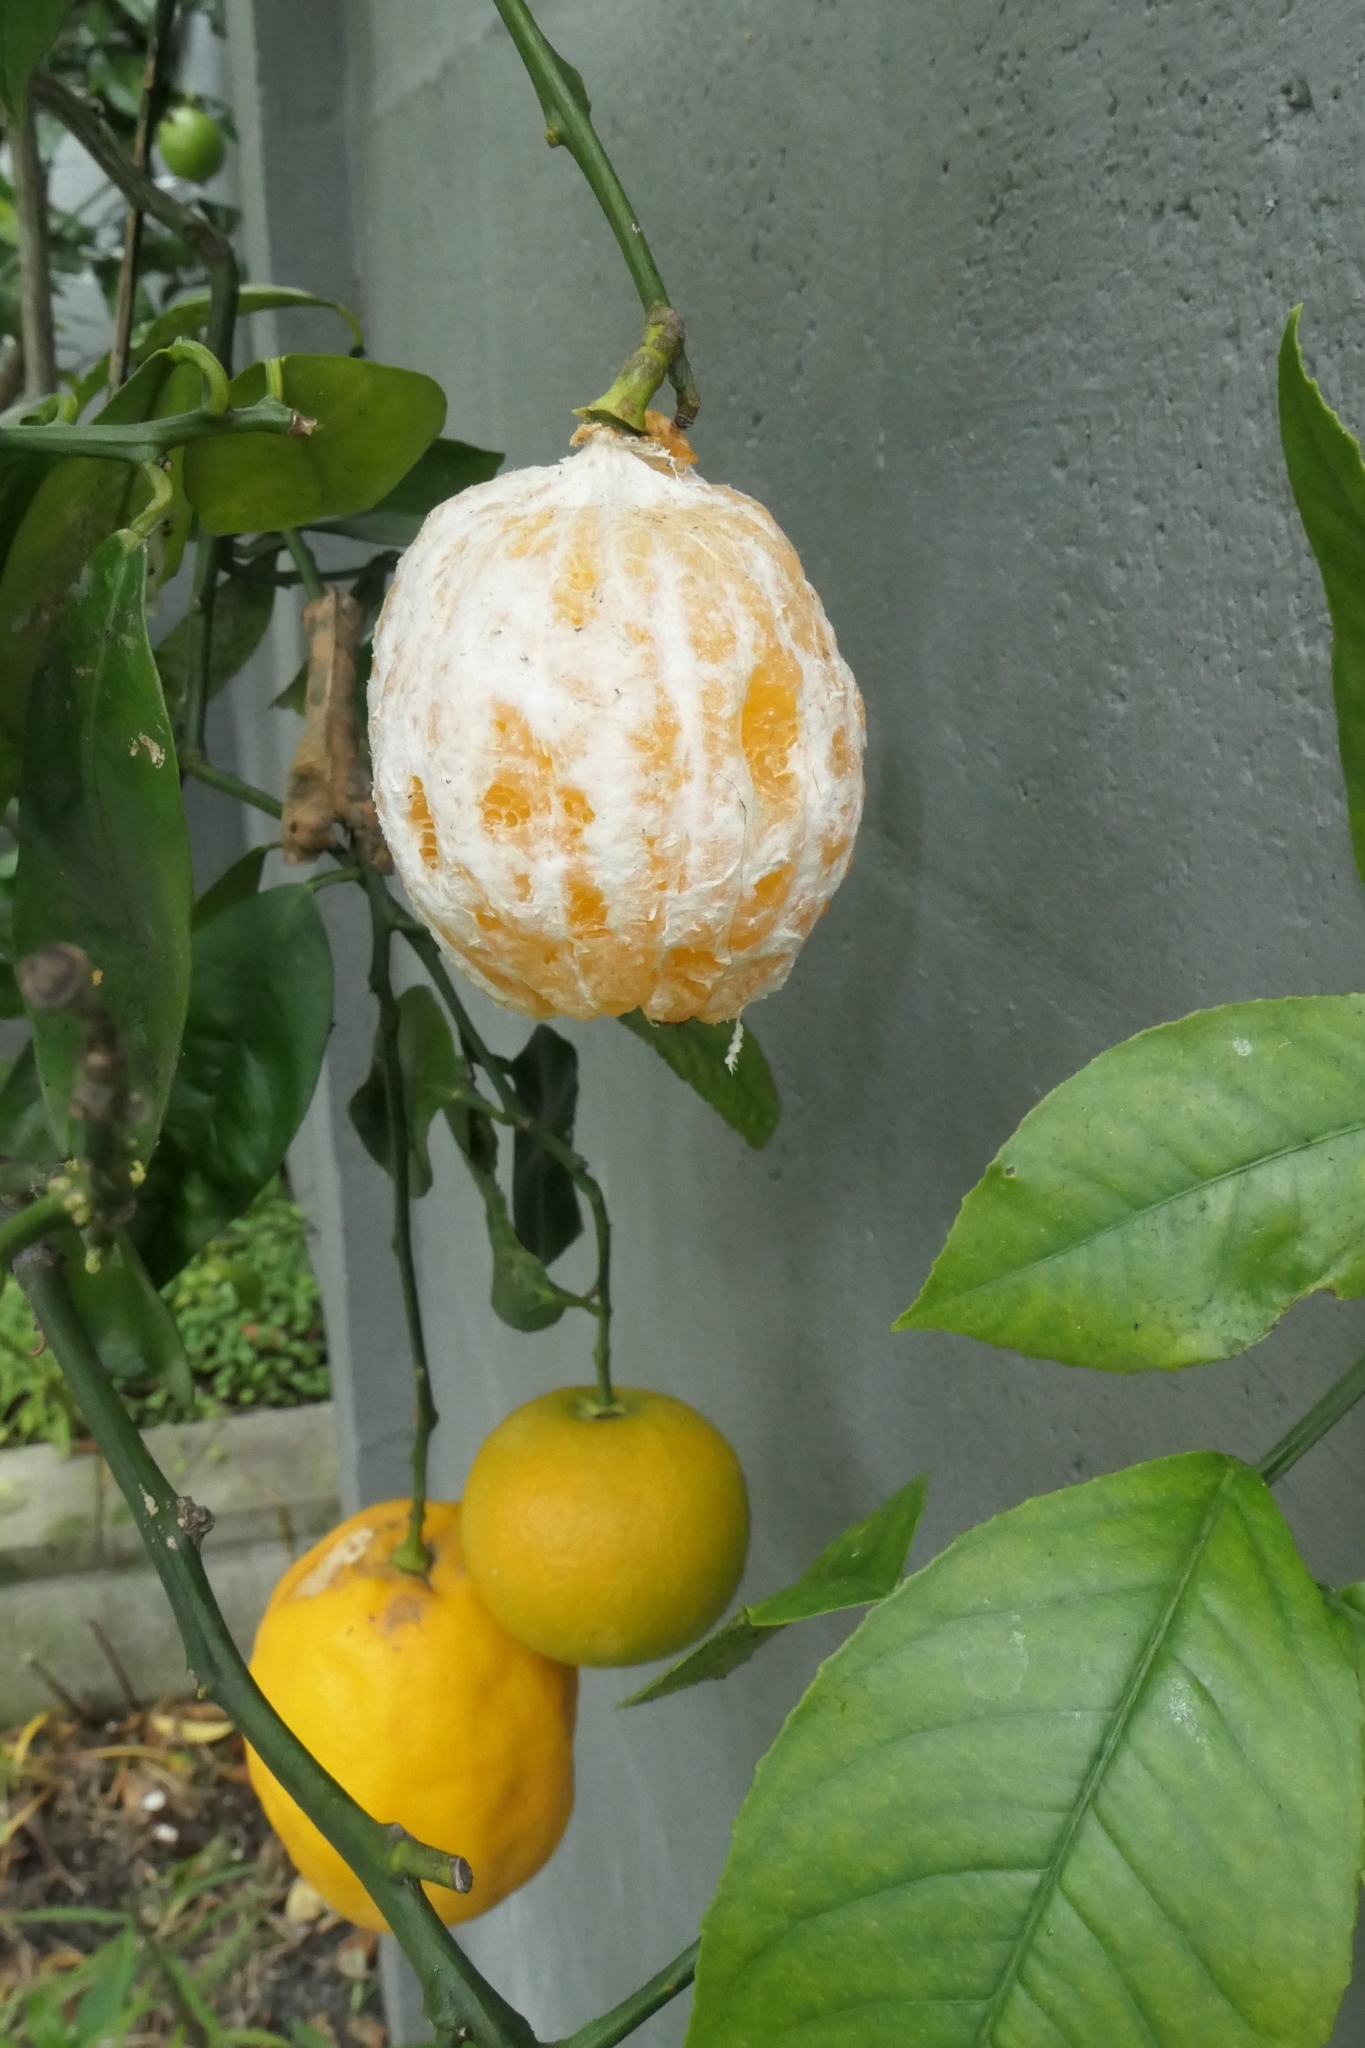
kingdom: Animalia
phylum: Chordata
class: Mammalia
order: Diprotodontia
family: Phalangeridae
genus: Trichosurus
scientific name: Trichosurus vulpecula
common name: Common brushtail
